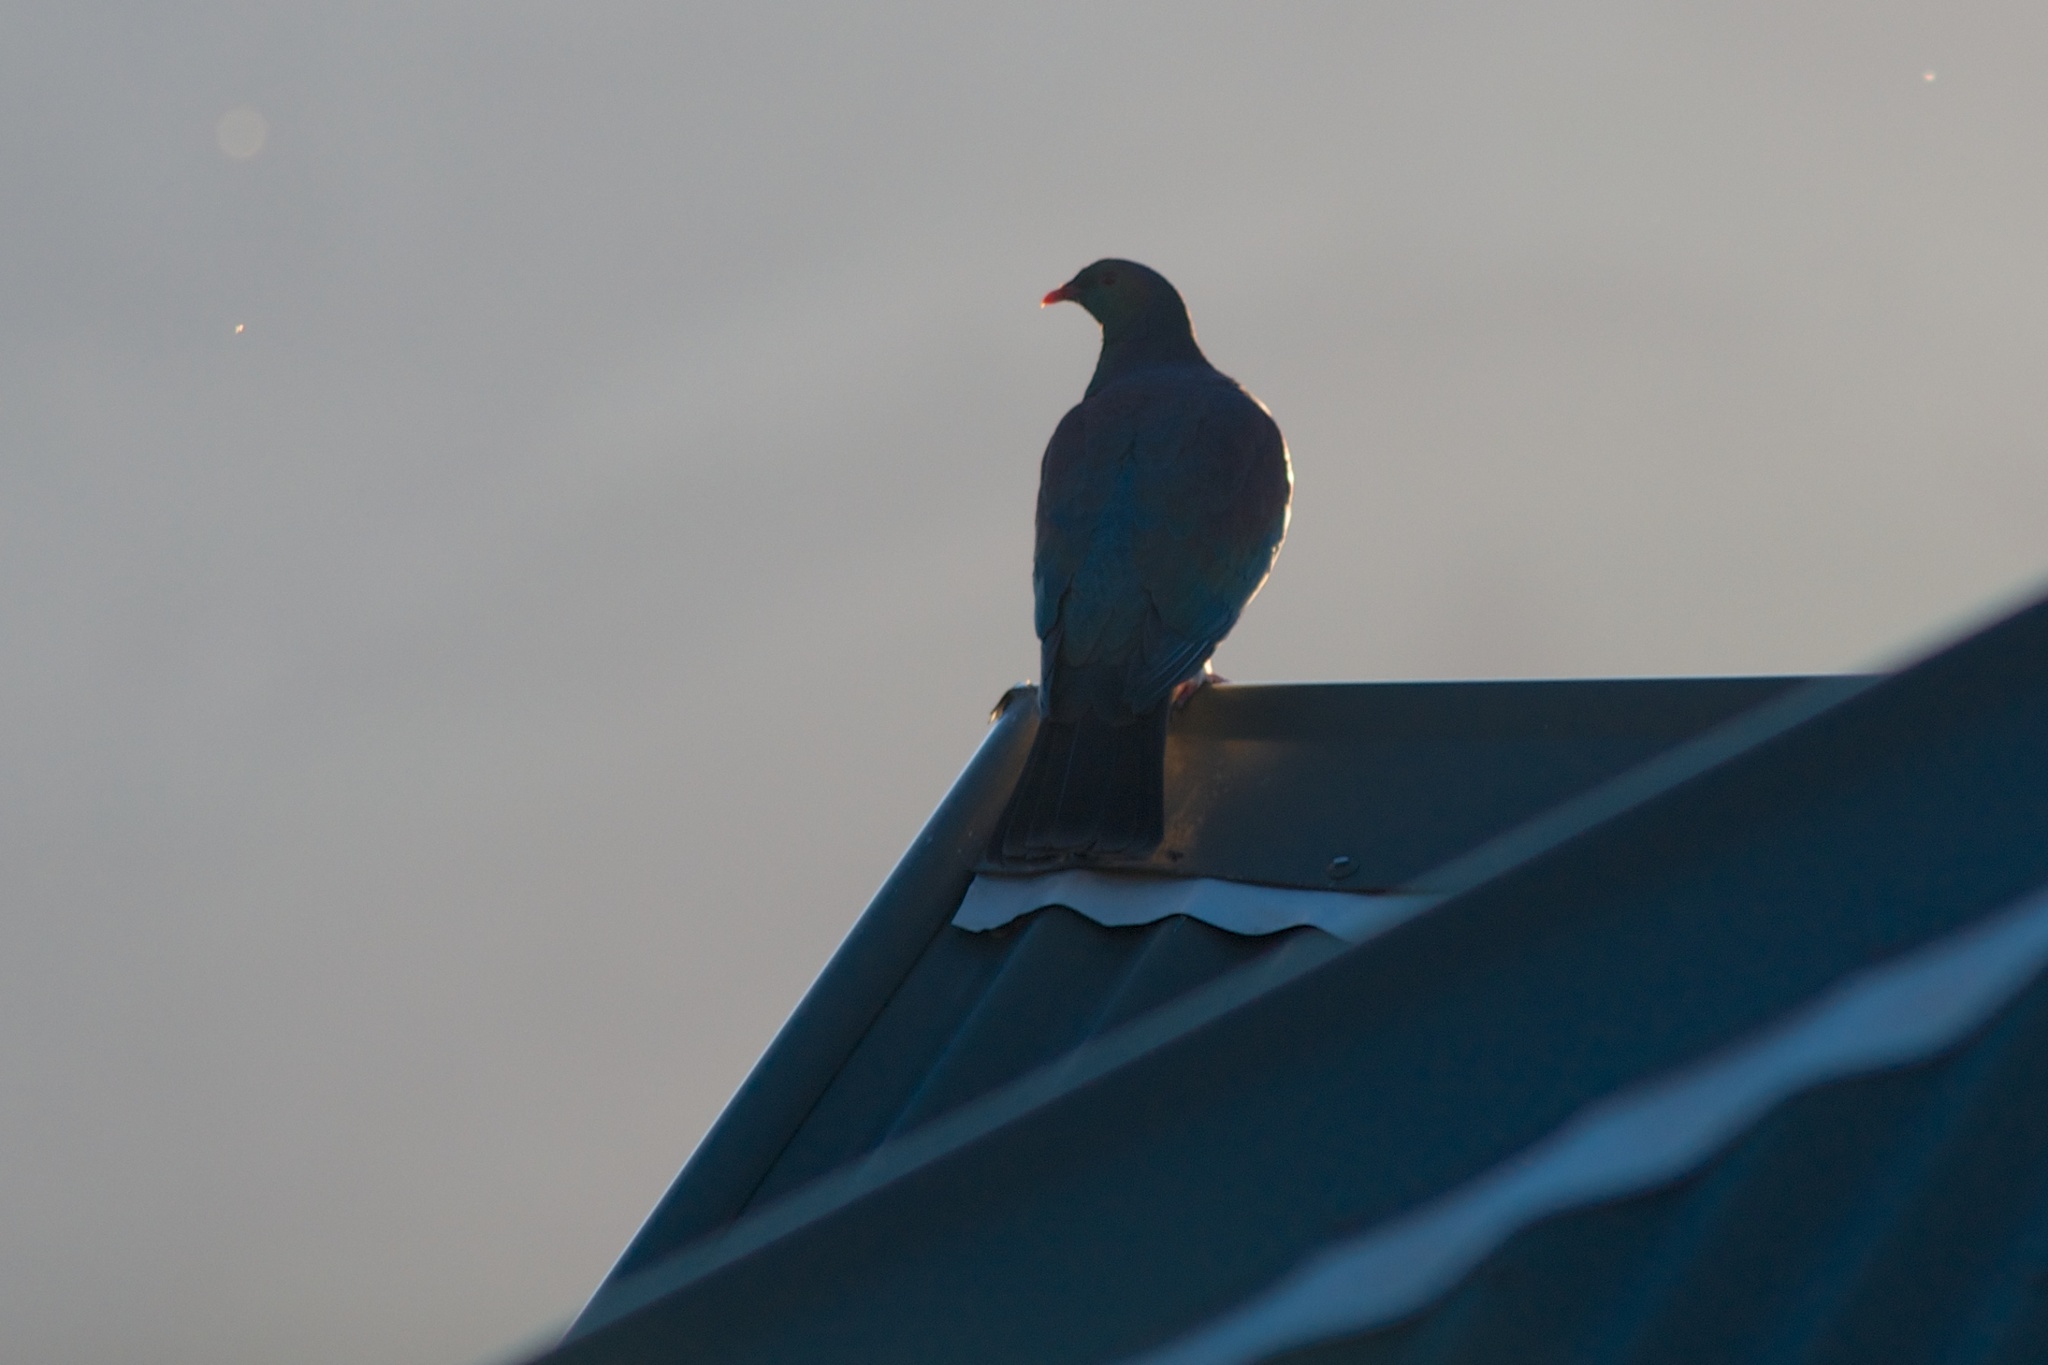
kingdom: Animalia
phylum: Chordata
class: Aves
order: Columbiformes
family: Columbidae
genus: Hemiphaga
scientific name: Hemiphaga novaeseelandiae
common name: New zealand pigeon
